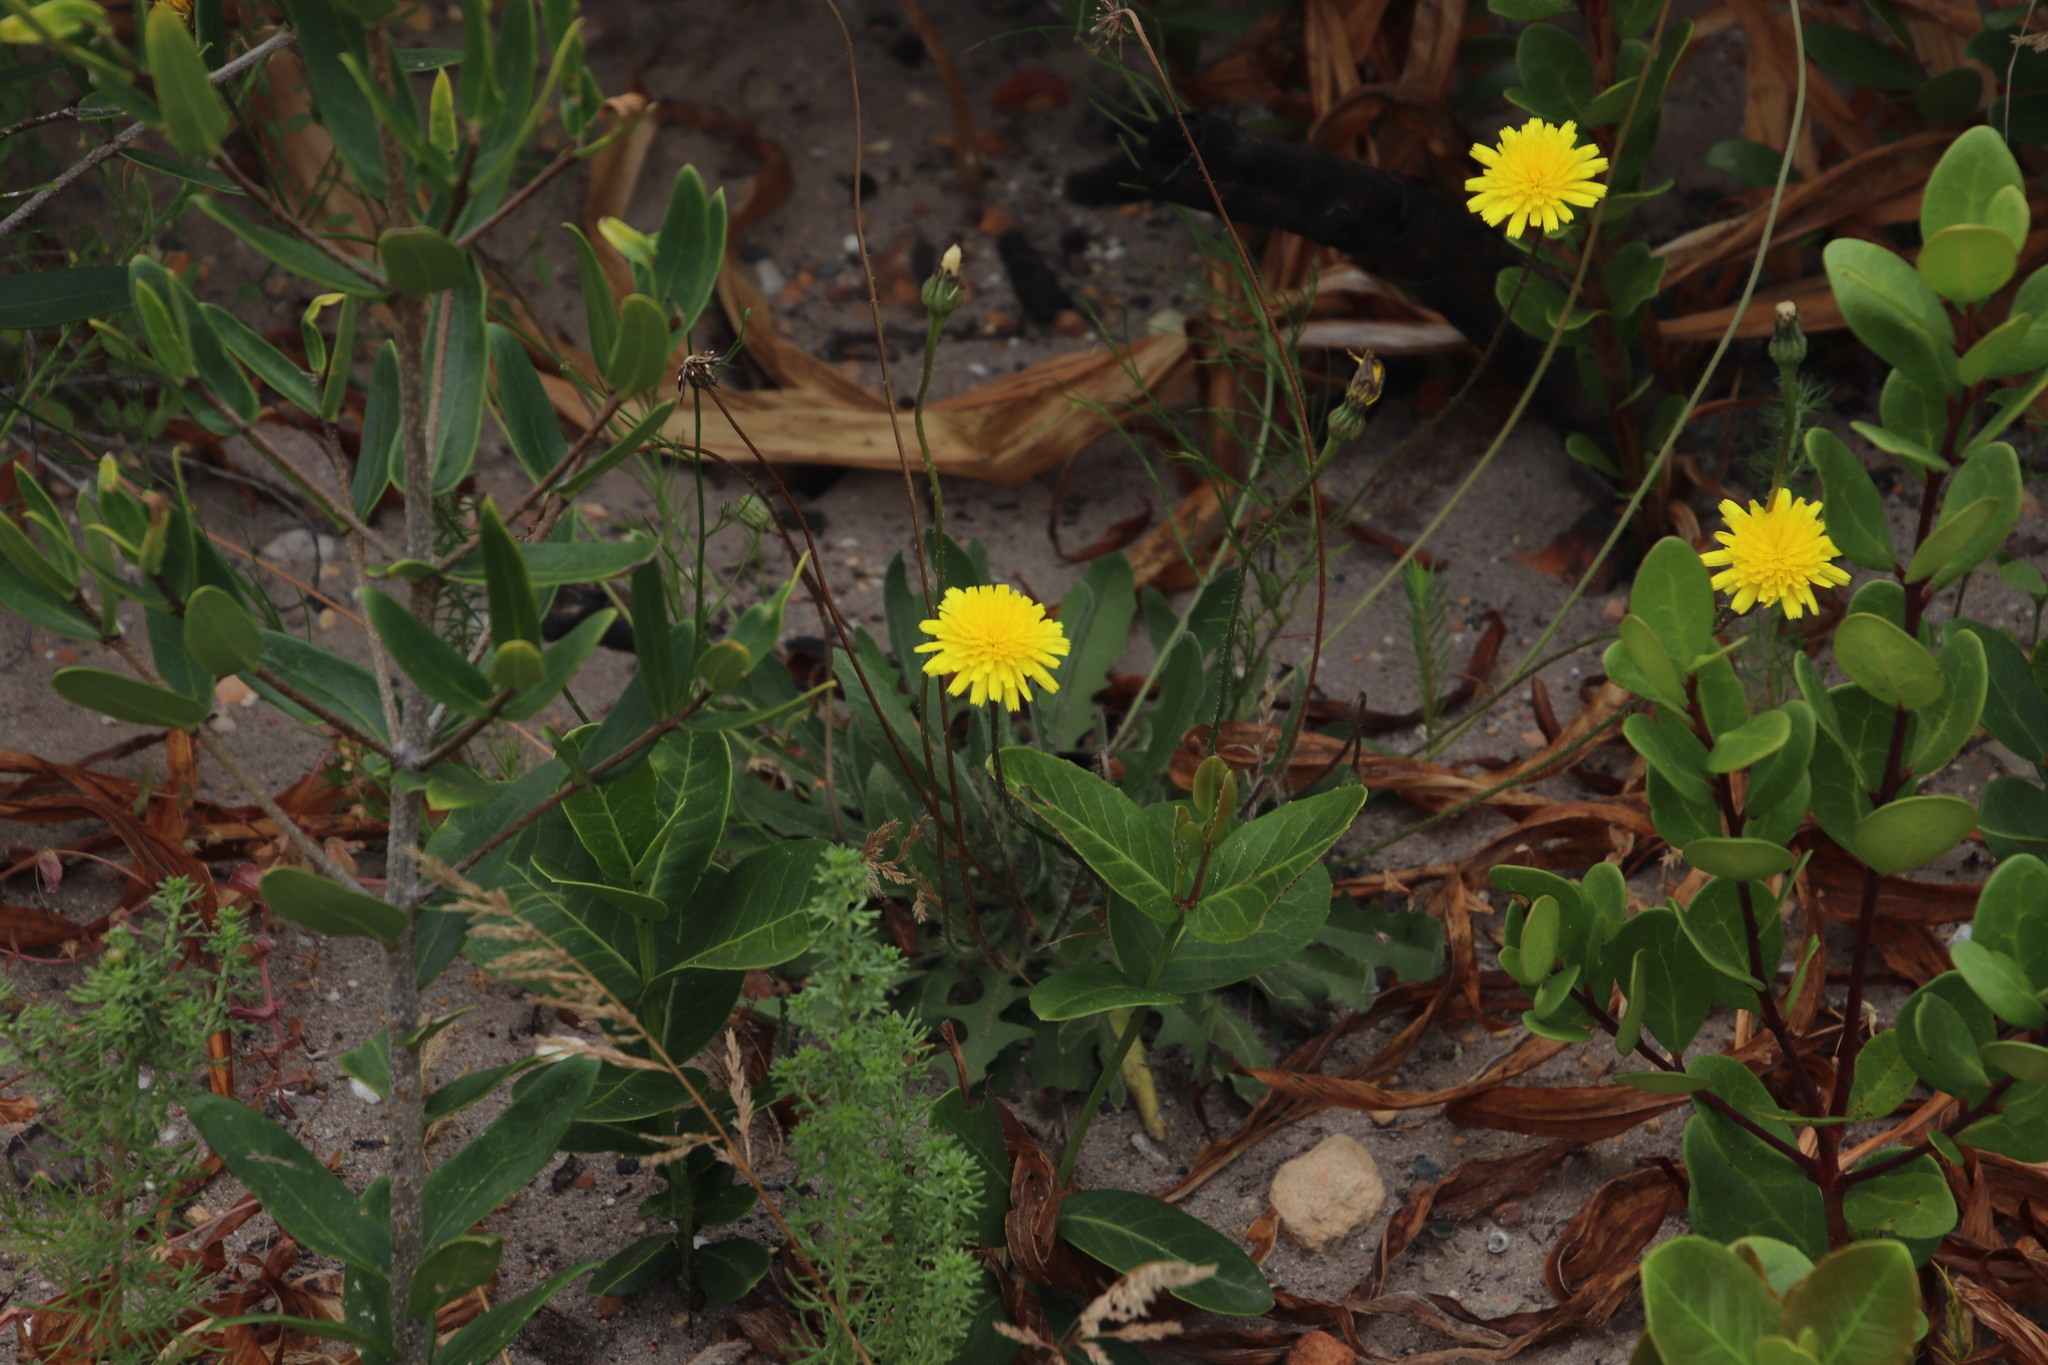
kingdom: Plantae
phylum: Tracheophyta
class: Magnoliopsida
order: Asterales
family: Asteraceae
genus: Hypochaeris
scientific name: Hypochaeris radicata
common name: Flatweed
